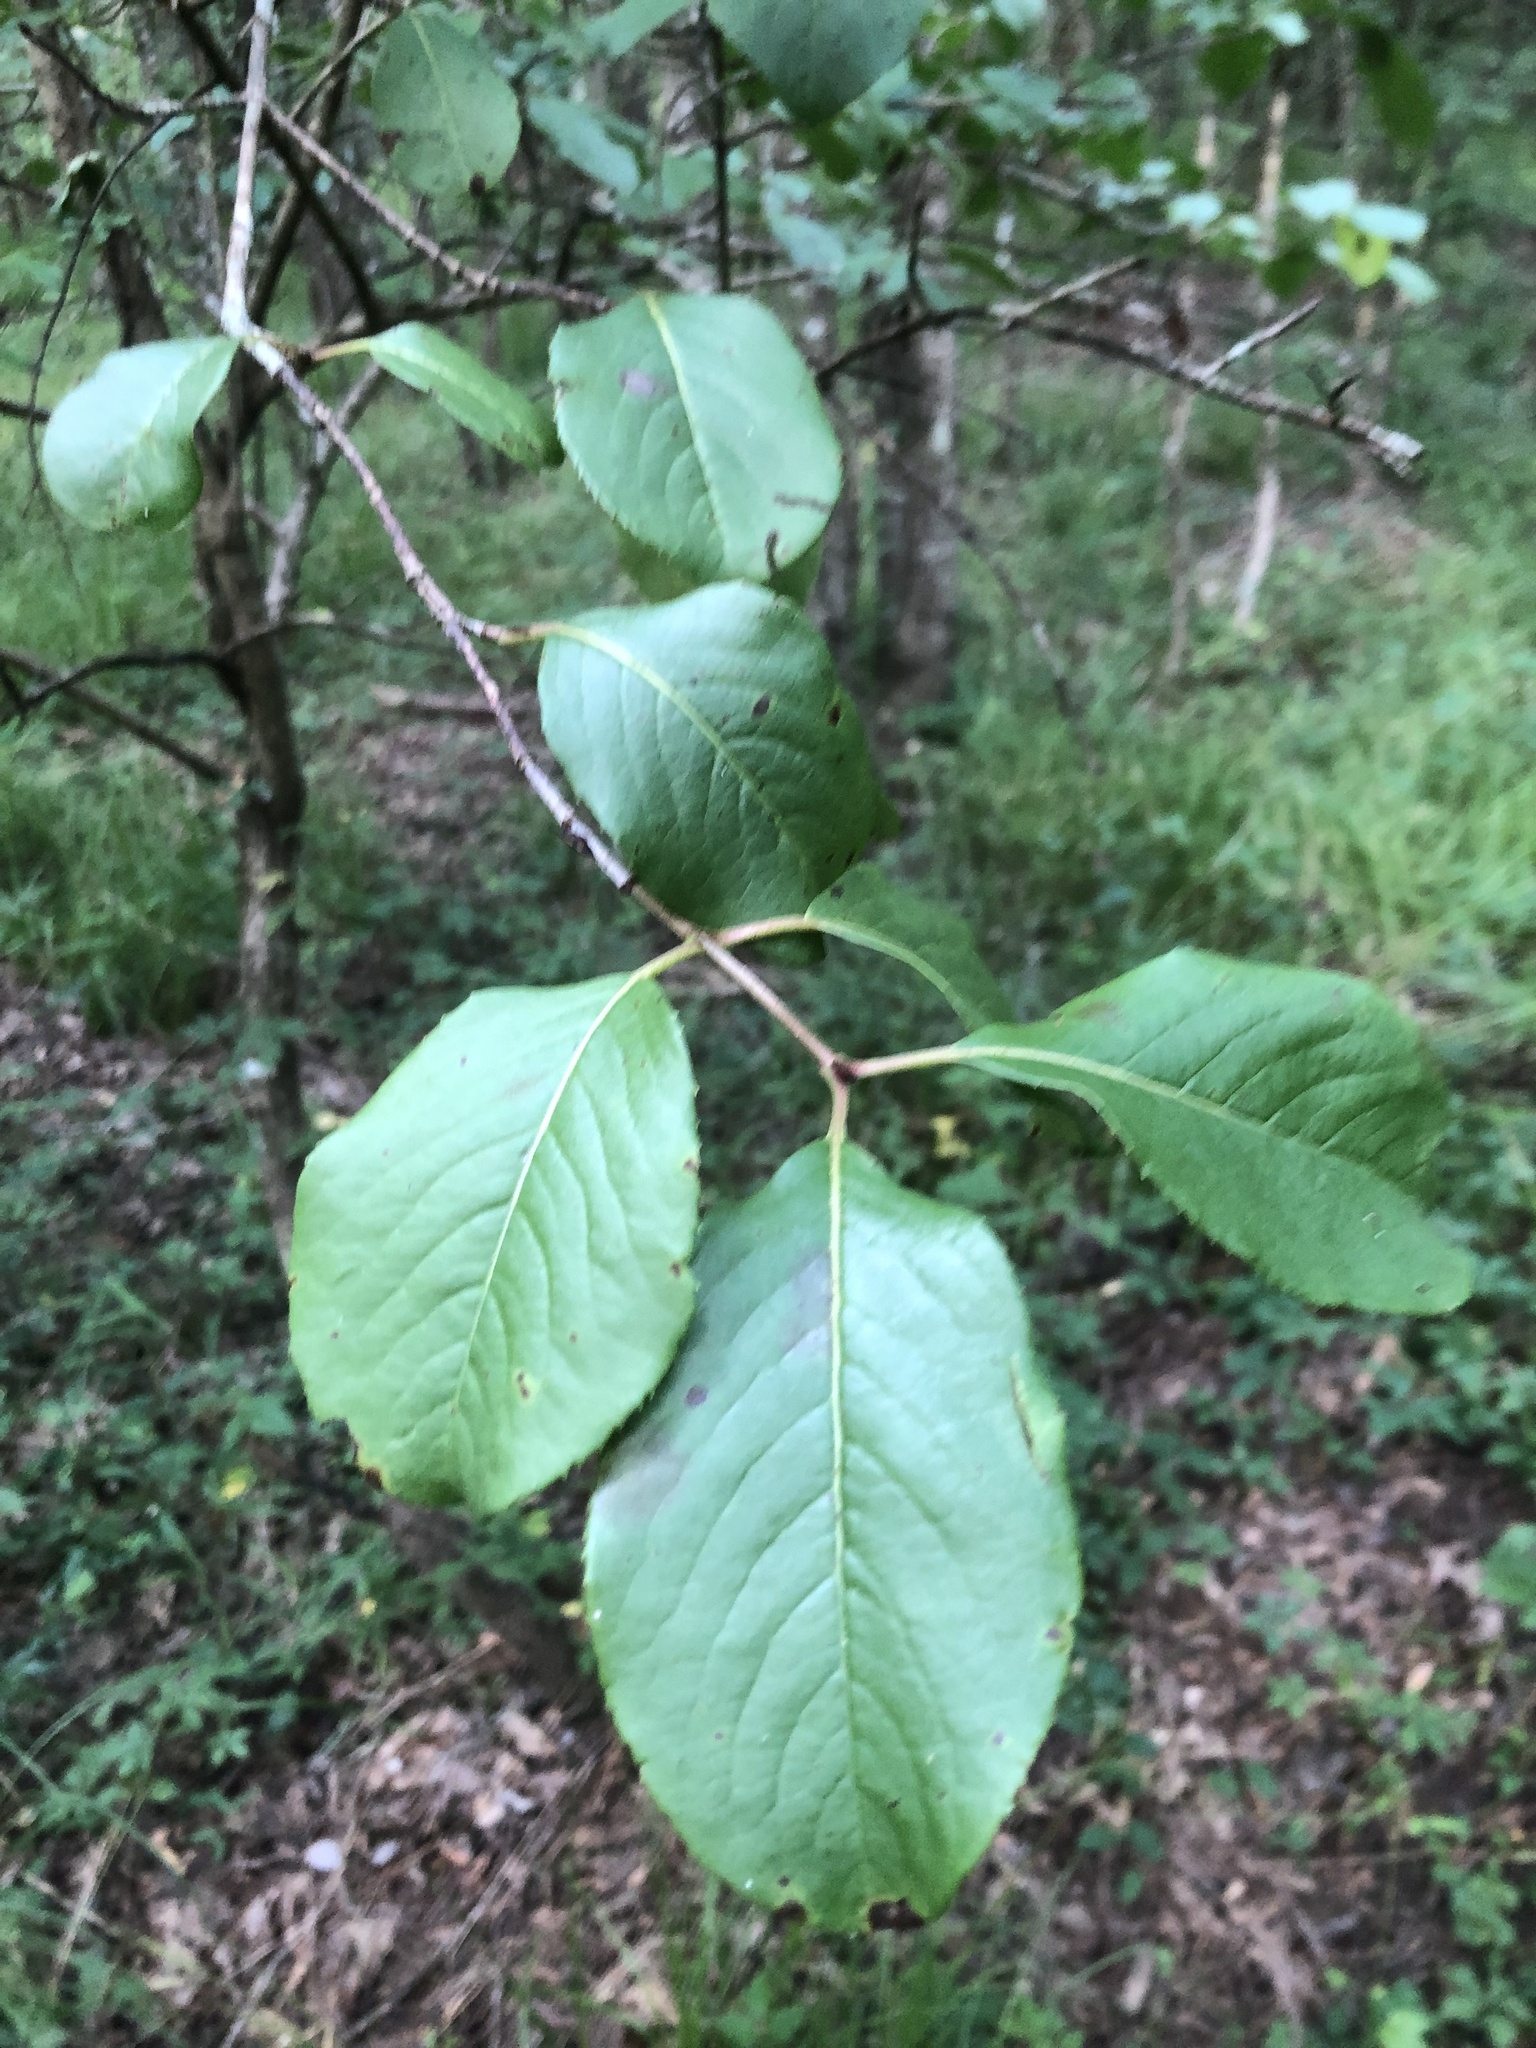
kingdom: Plantae
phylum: Tracheophyta
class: Magnoliopsida
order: Dipsacales
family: Viburnaceae
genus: Viburnum
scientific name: Viburnum rufidulum
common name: Blue haw
